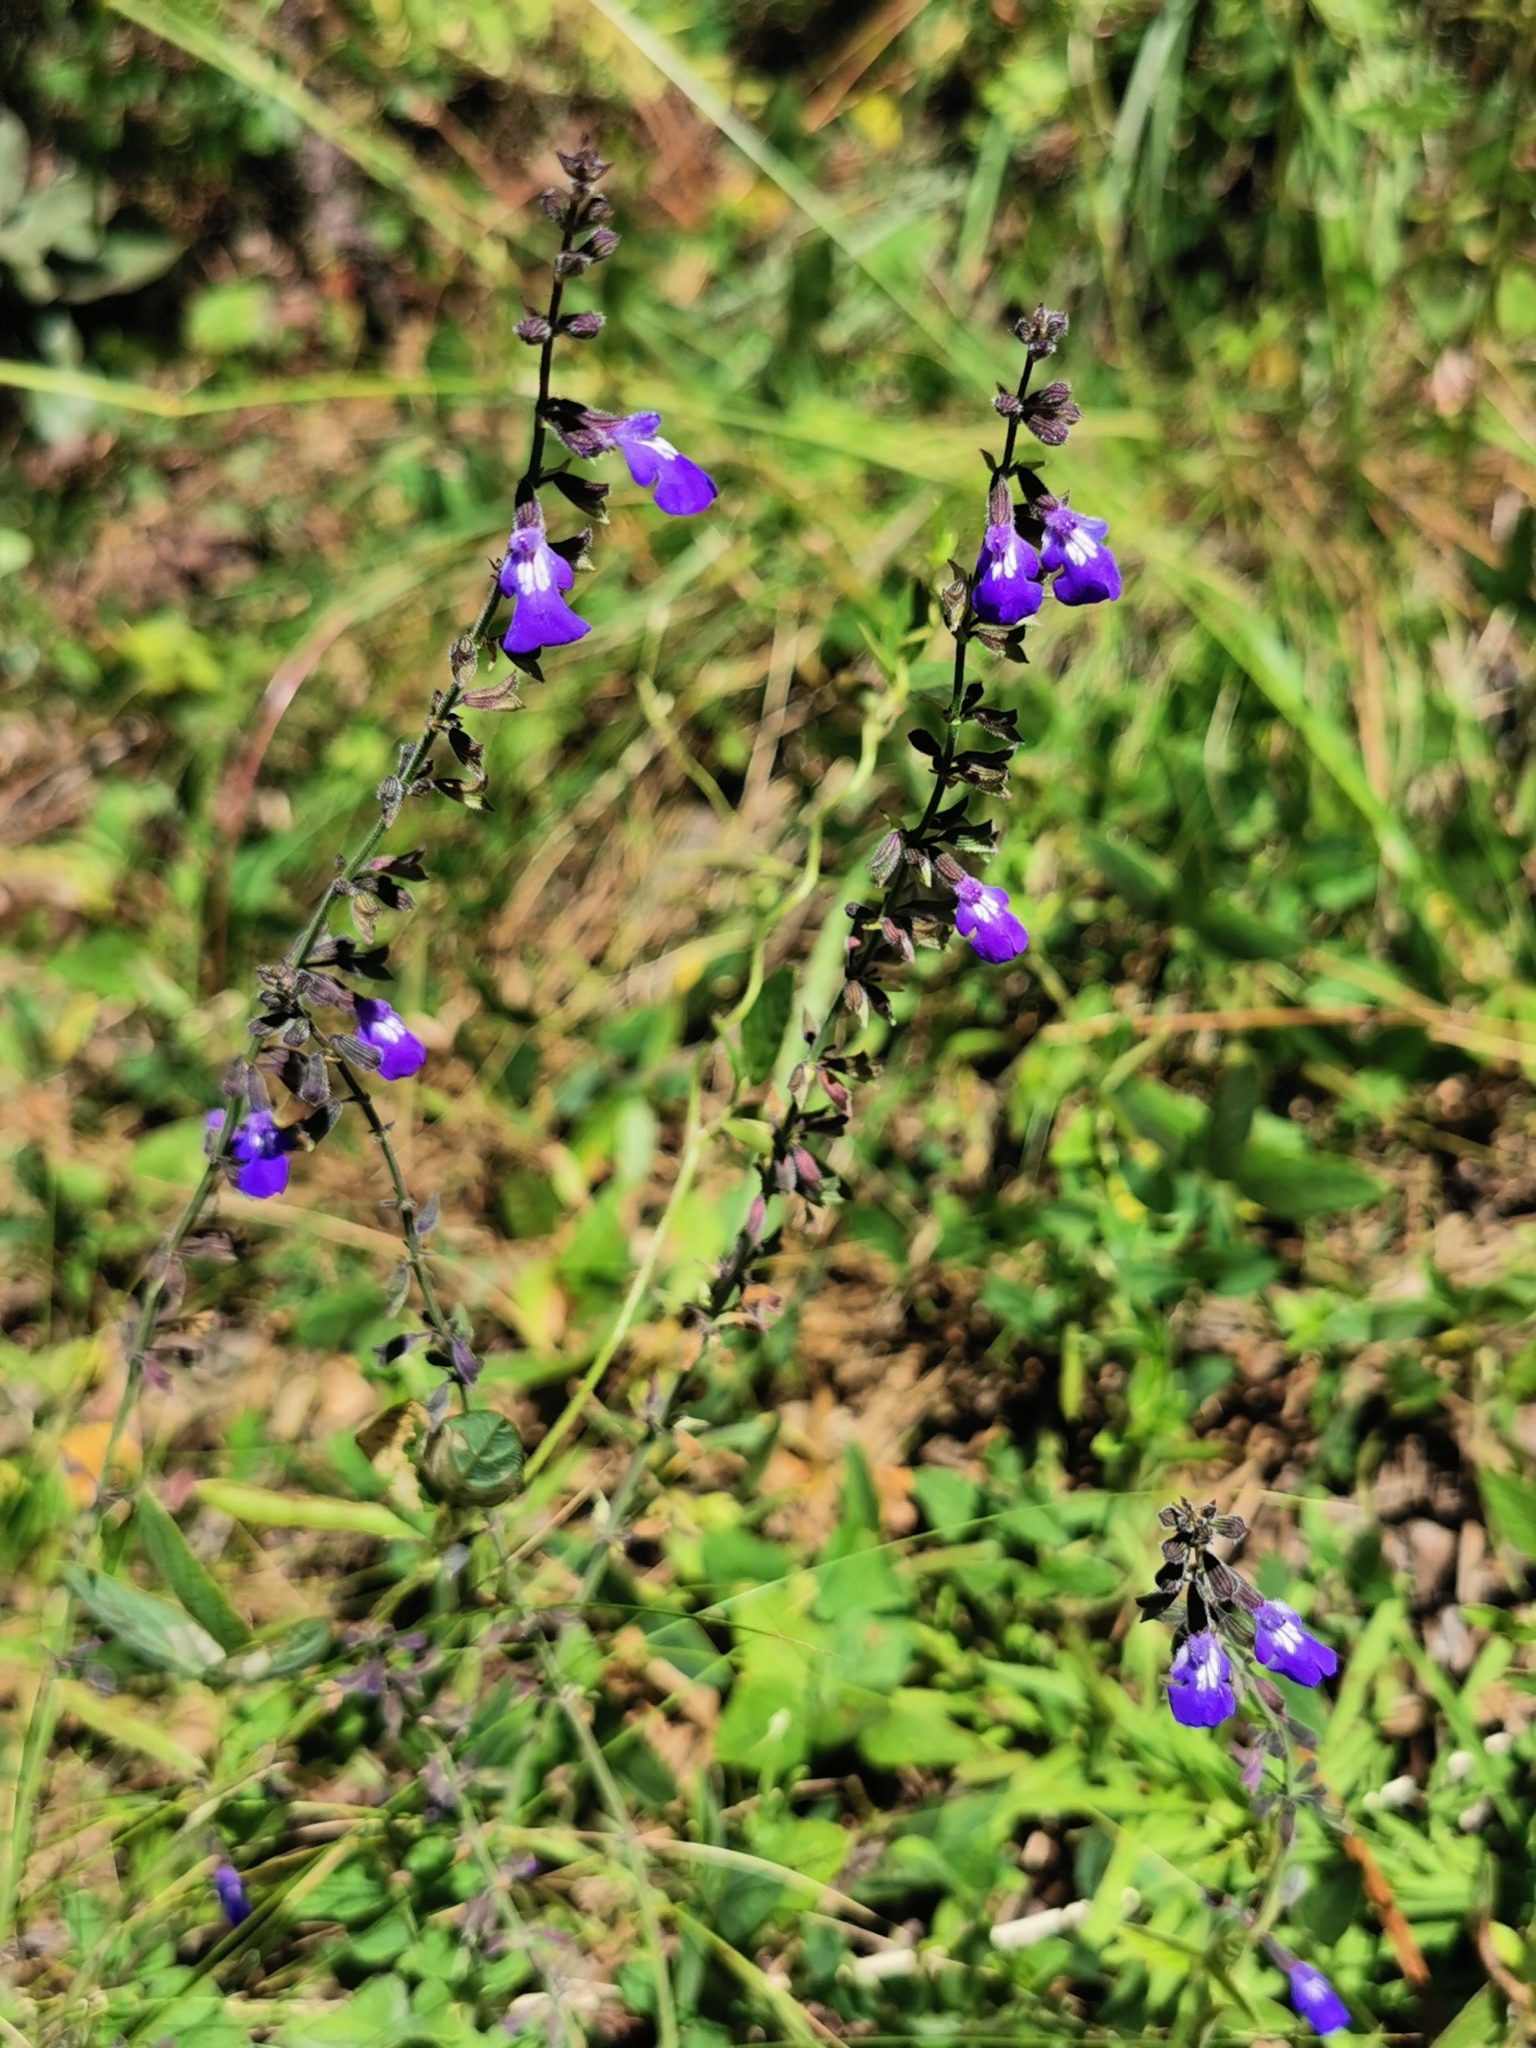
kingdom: Plantae
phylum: Tracheophyta
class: Magnoliopsida
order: Lamiales
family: Lamiaceae
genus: Salvia
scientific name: Salvia crucis
